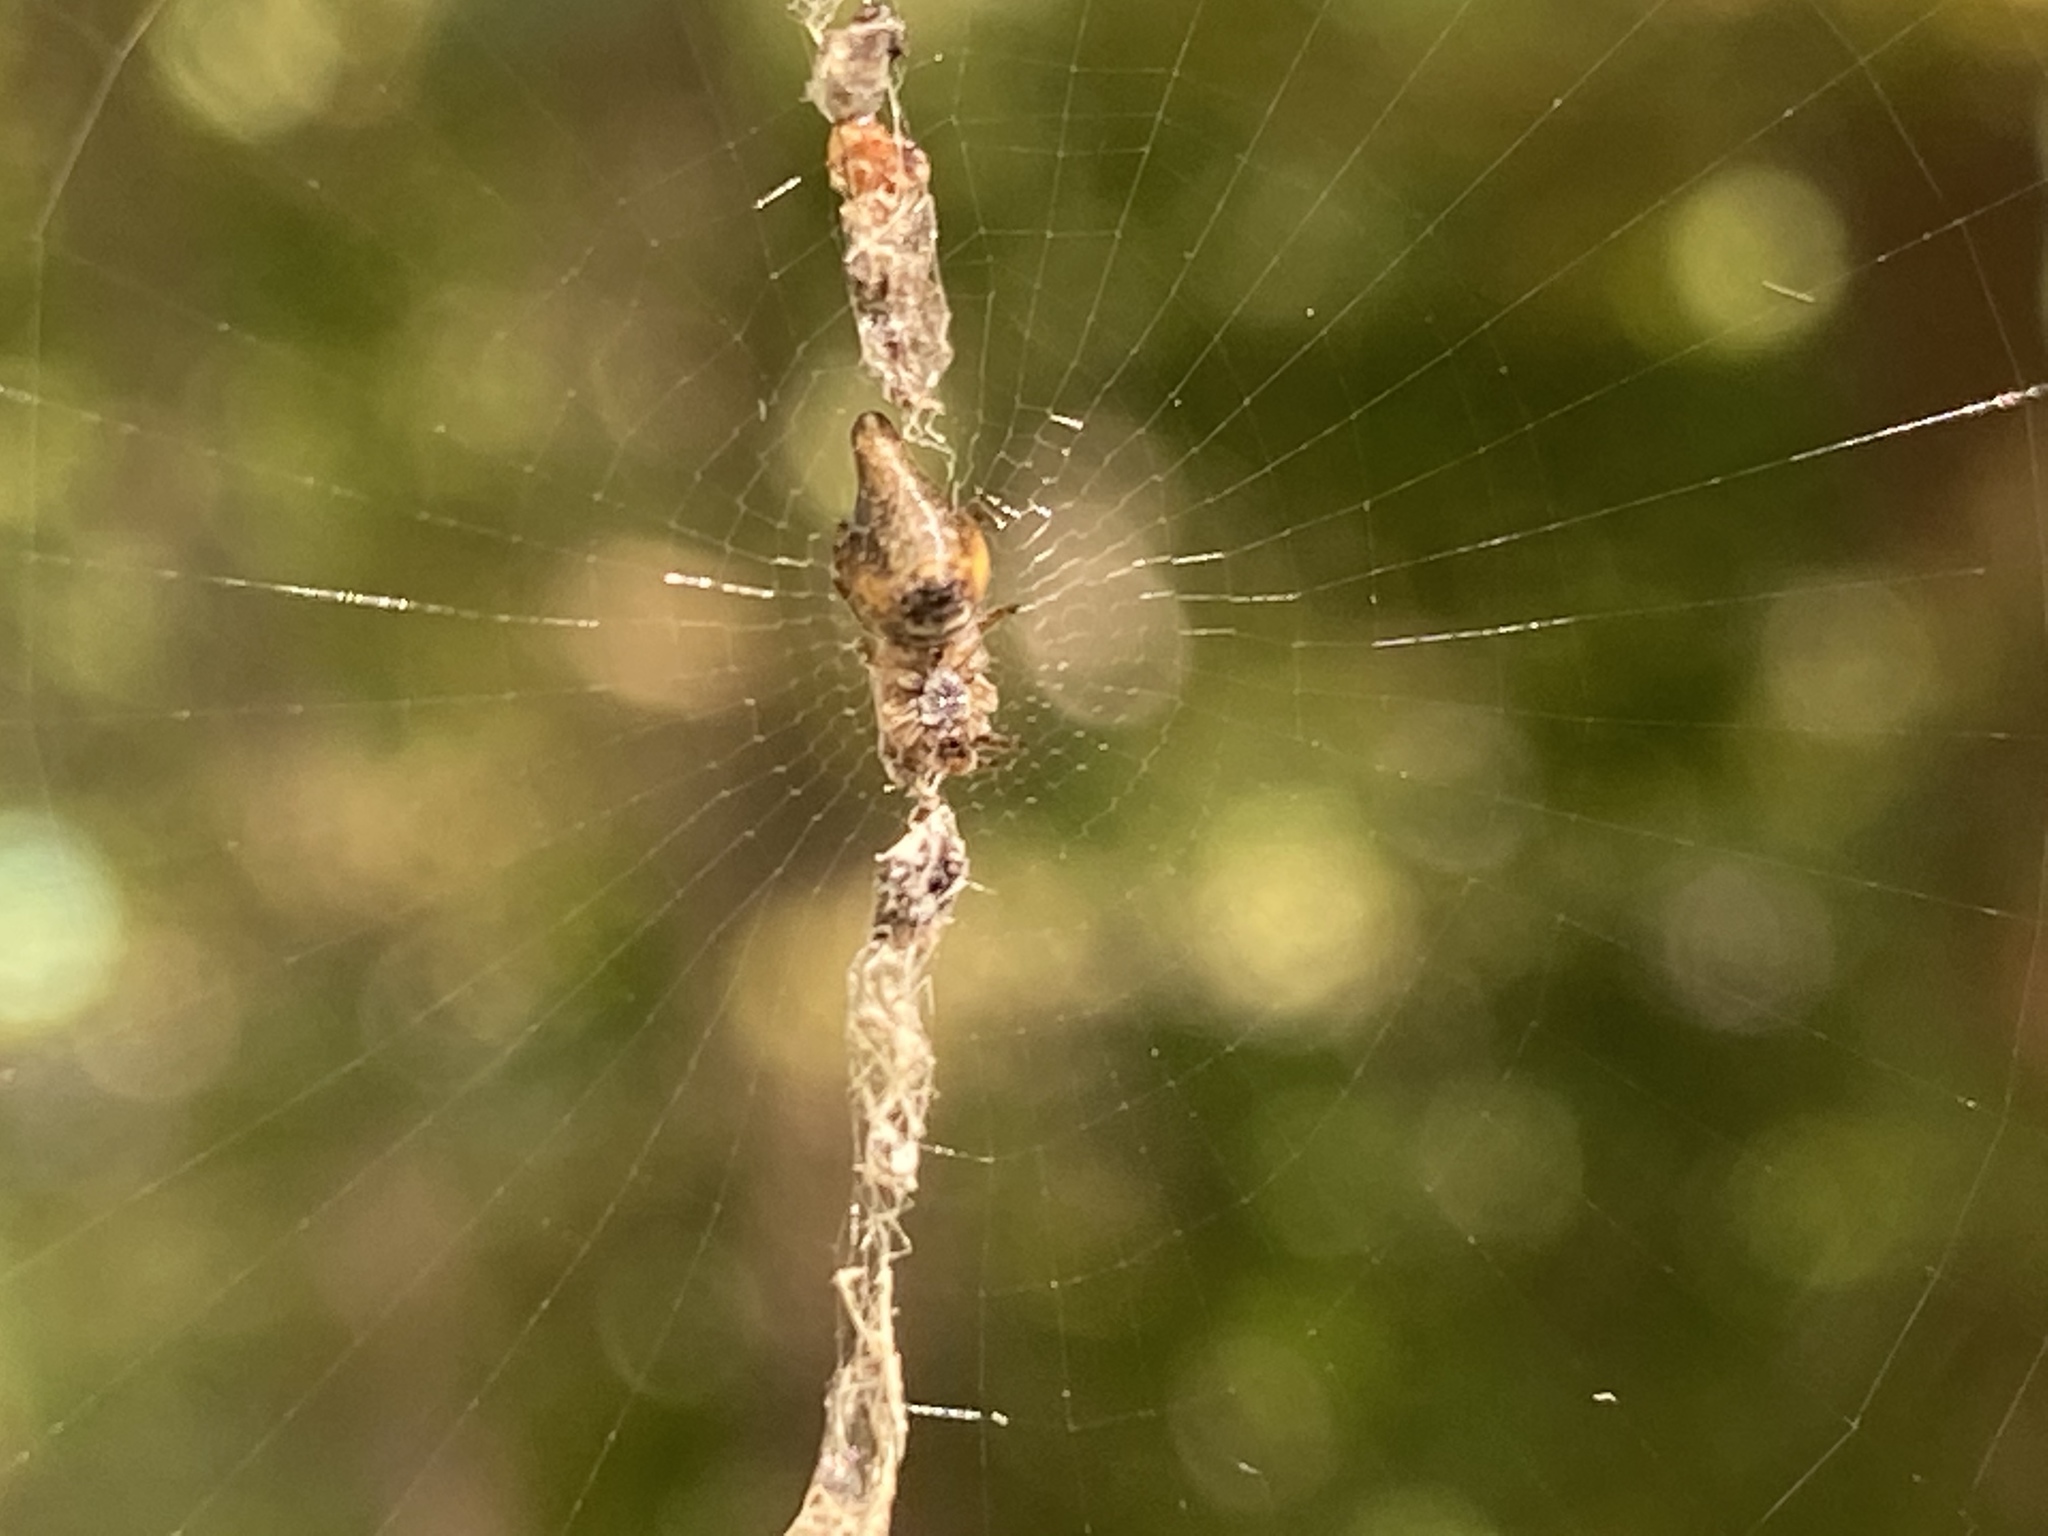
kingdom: Animalia
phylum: Arthropoda
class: Arachnida
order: Araneae
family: Araneidae
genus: Cyclosa
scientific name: Cyclosa conica
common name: Conical trashline orbweaver
